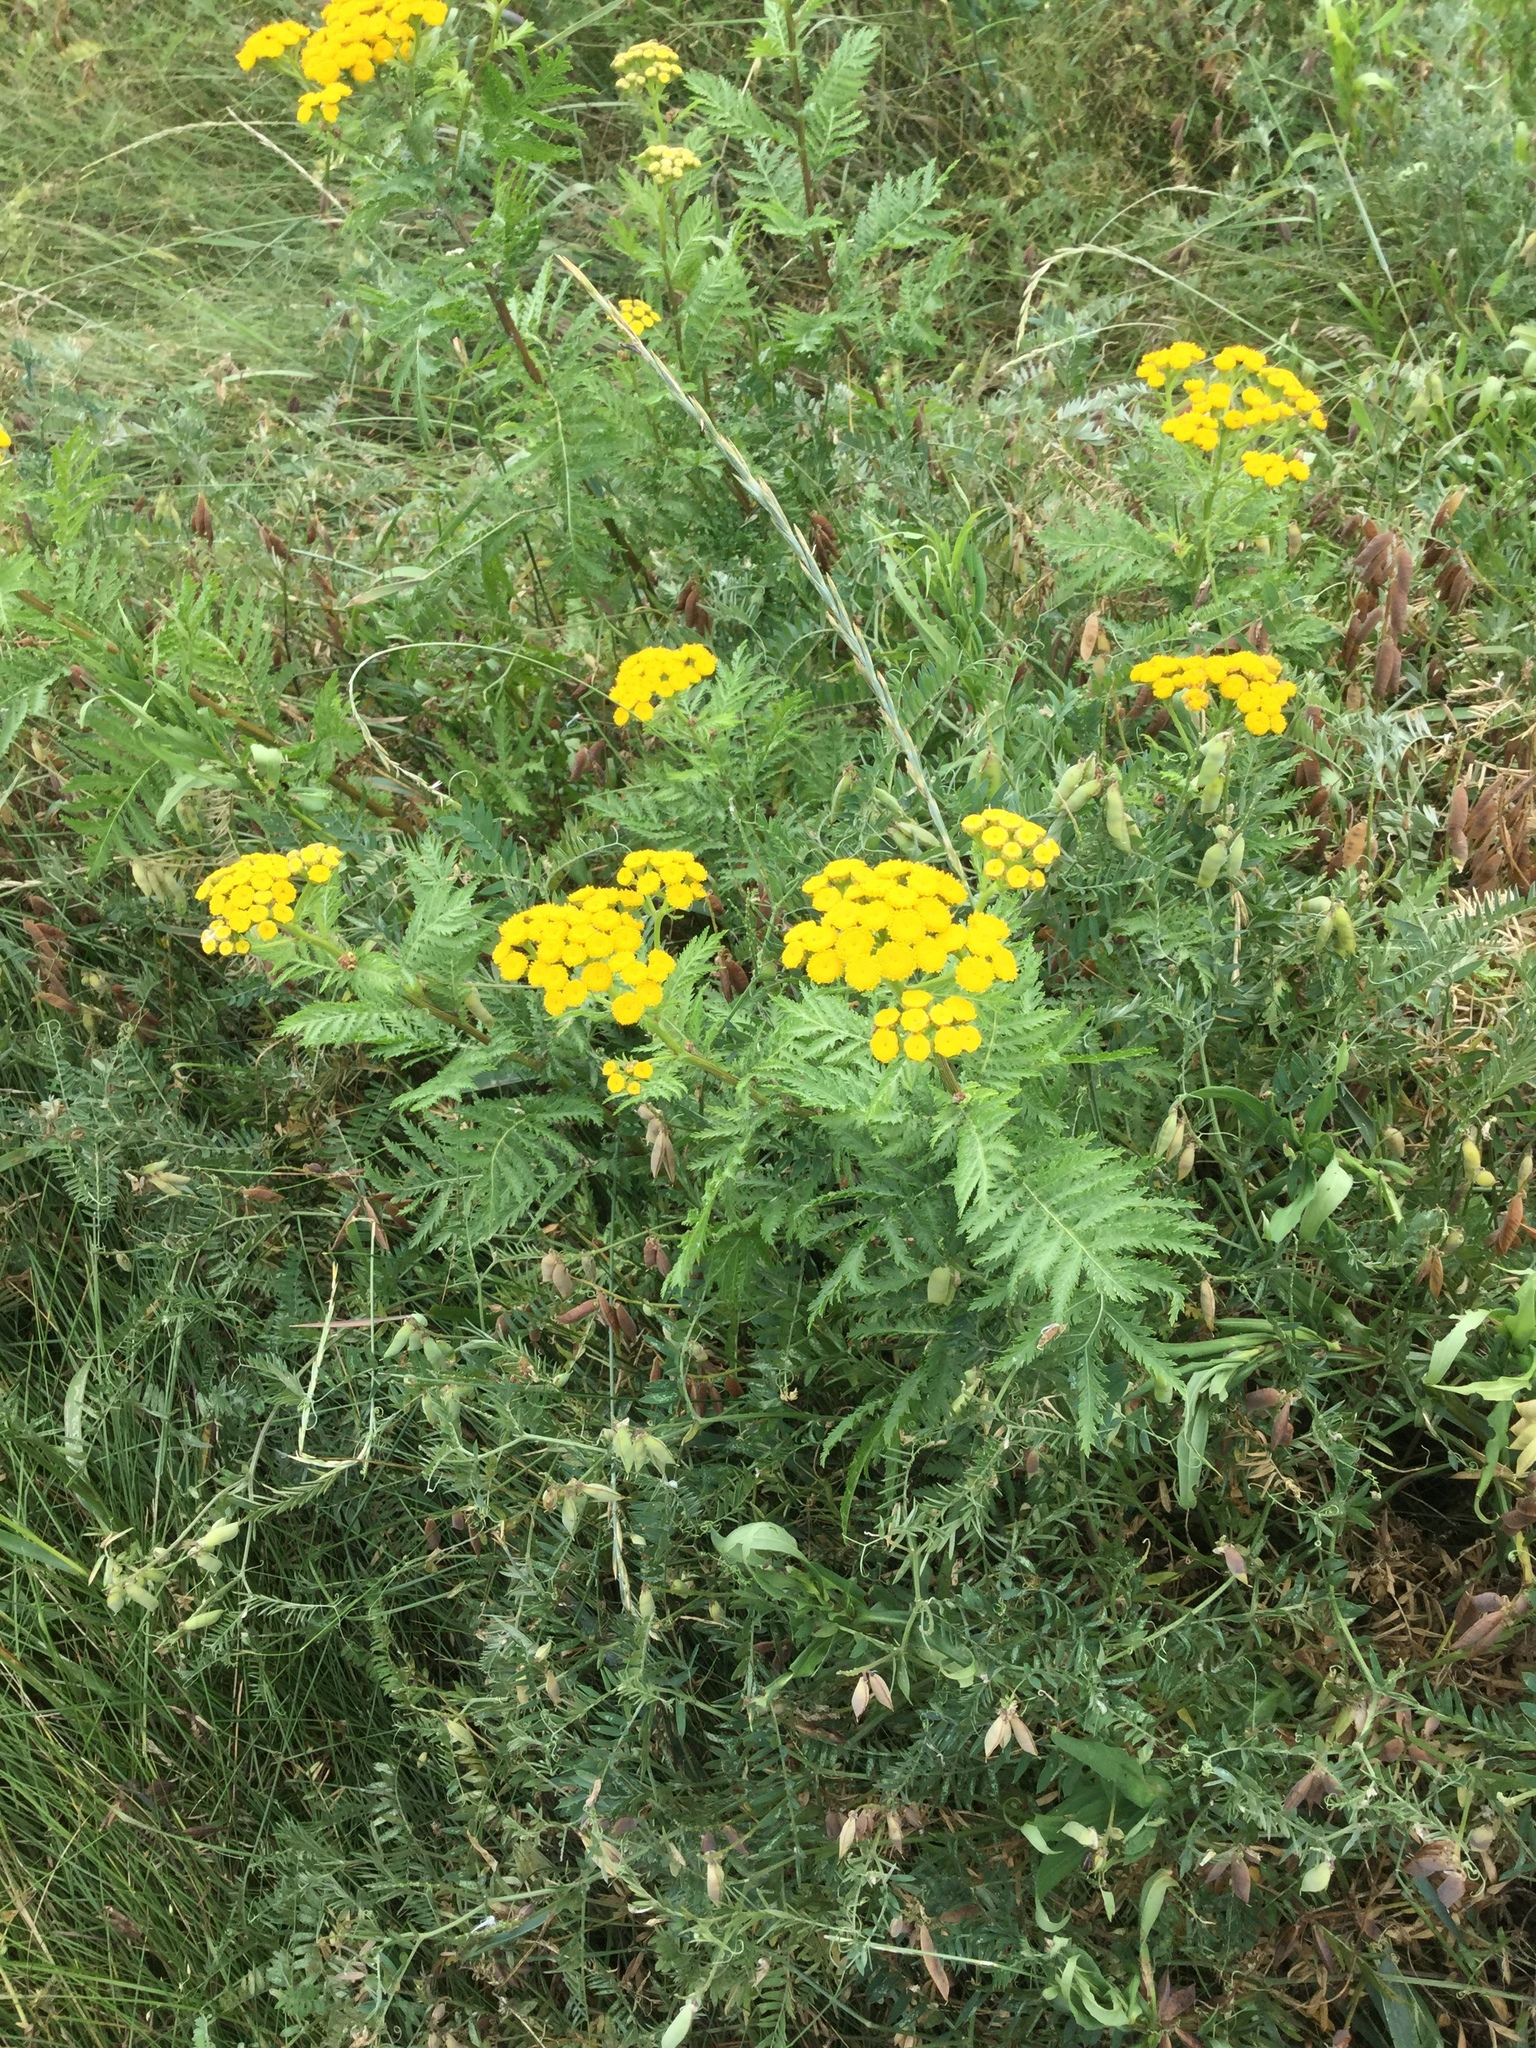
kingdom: Plantae
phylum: Tracheophyta
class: Magnoliopsida
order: Asterales
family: Asteraceae
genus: Tanacetum
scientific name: Tanacetum vulgare
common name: Common tansy
